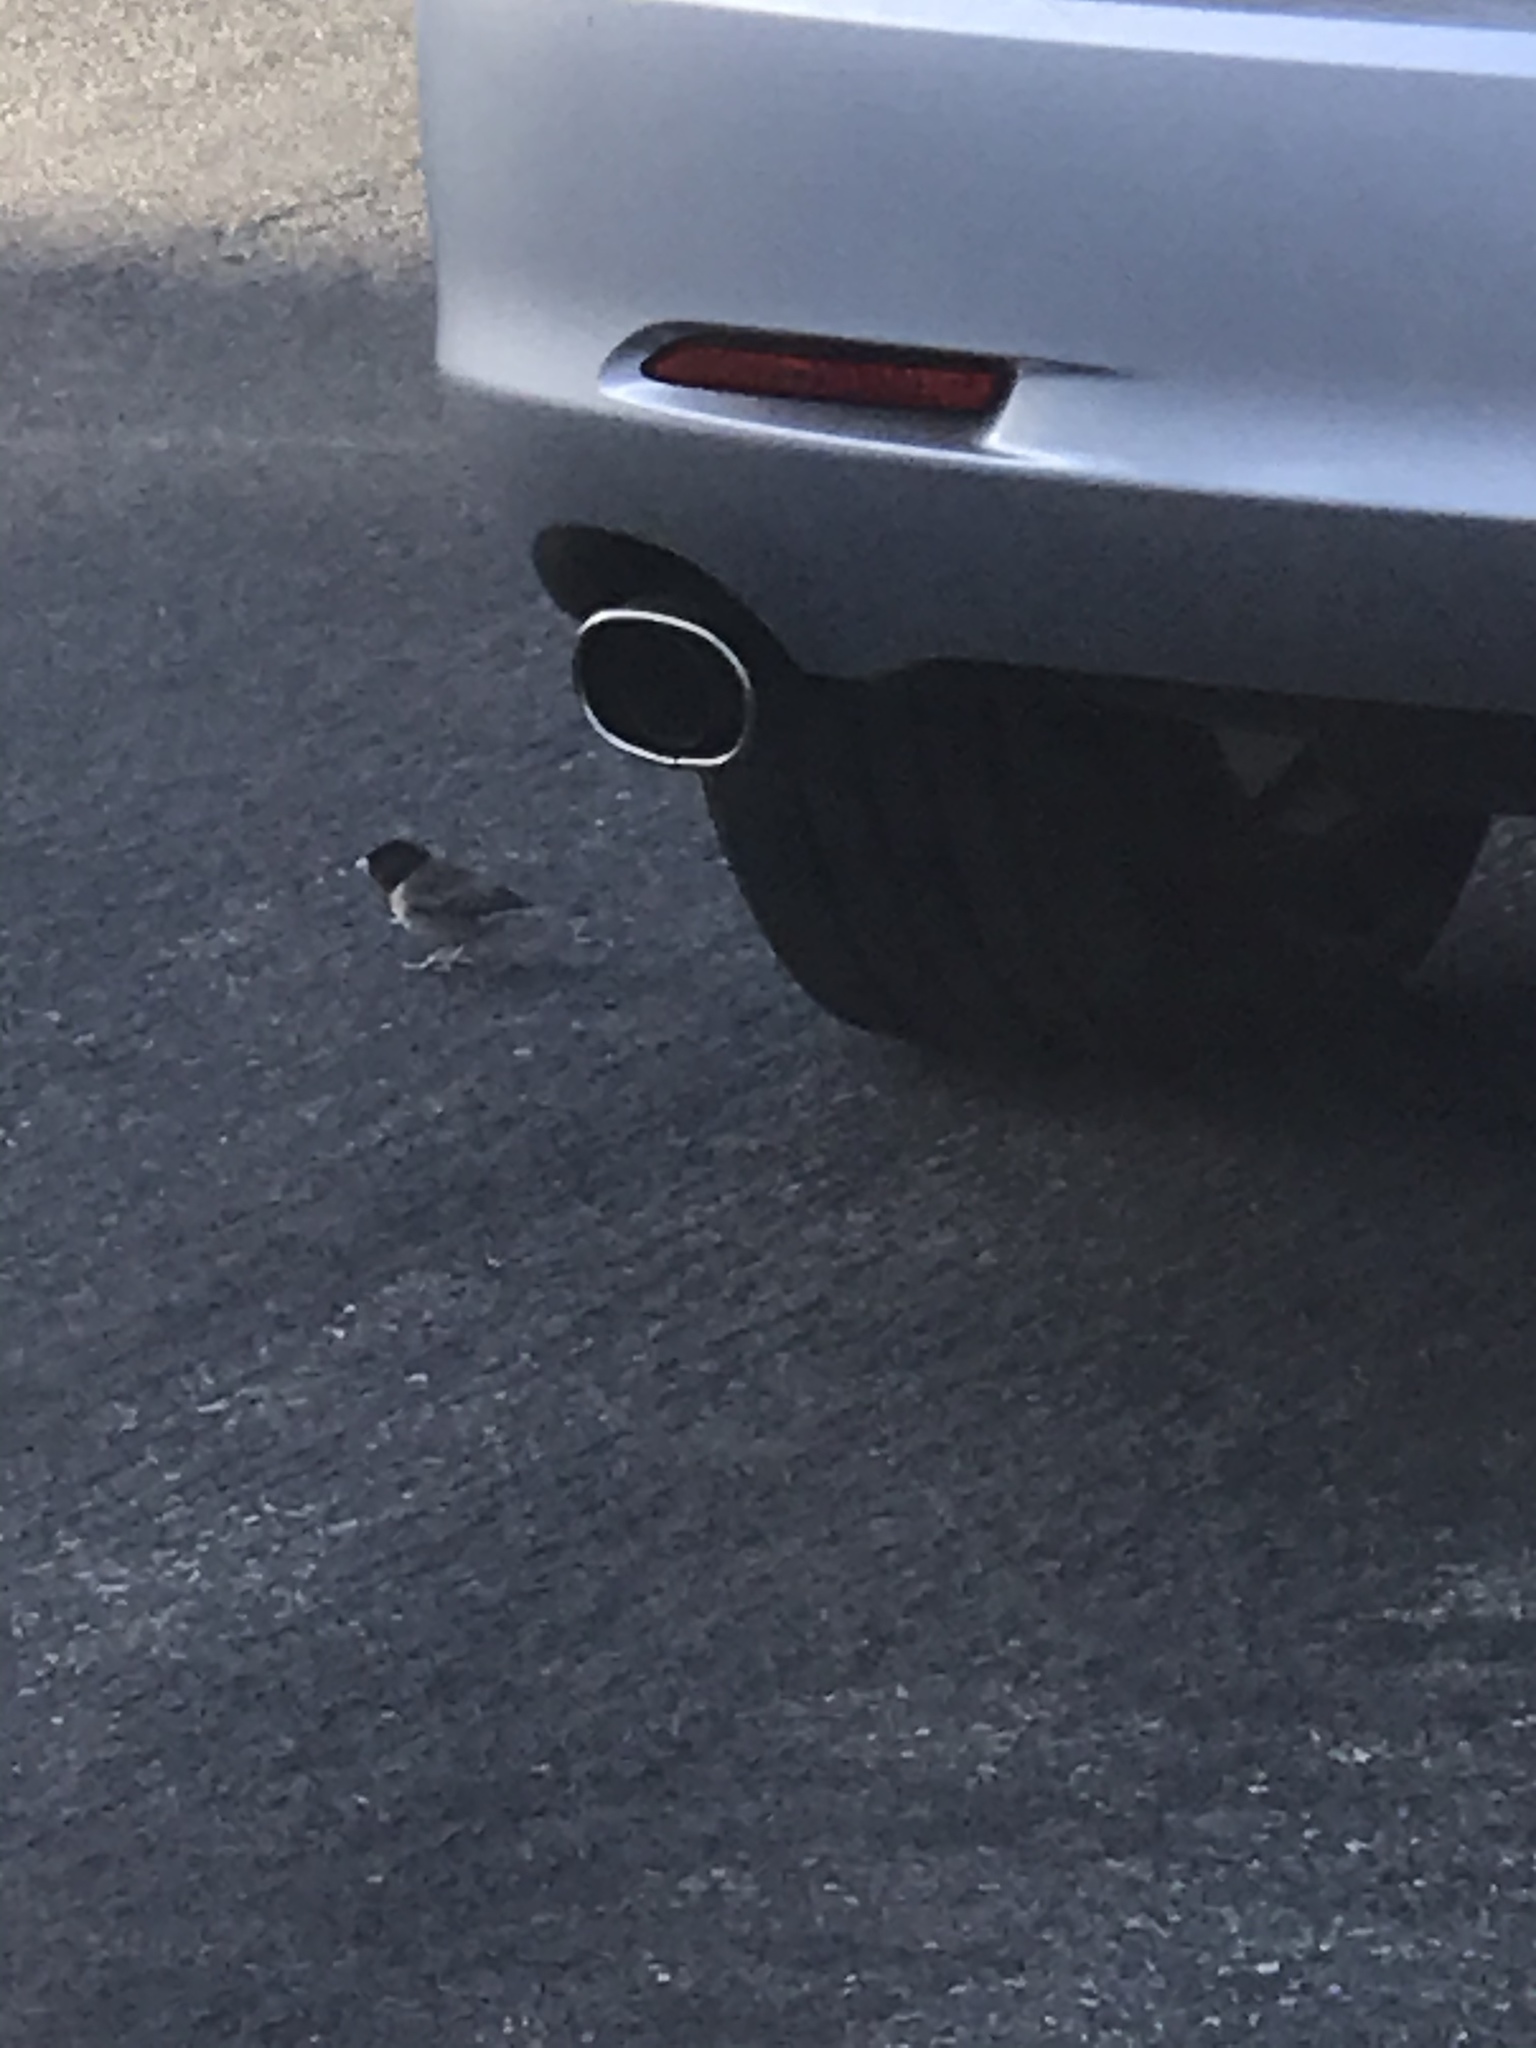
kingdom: Animalia
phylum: Chordata
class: Aves
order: Passeriformes
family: Passerellidae
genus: Junco
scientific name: Junco hyemalis
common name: Dark-eyed junco
